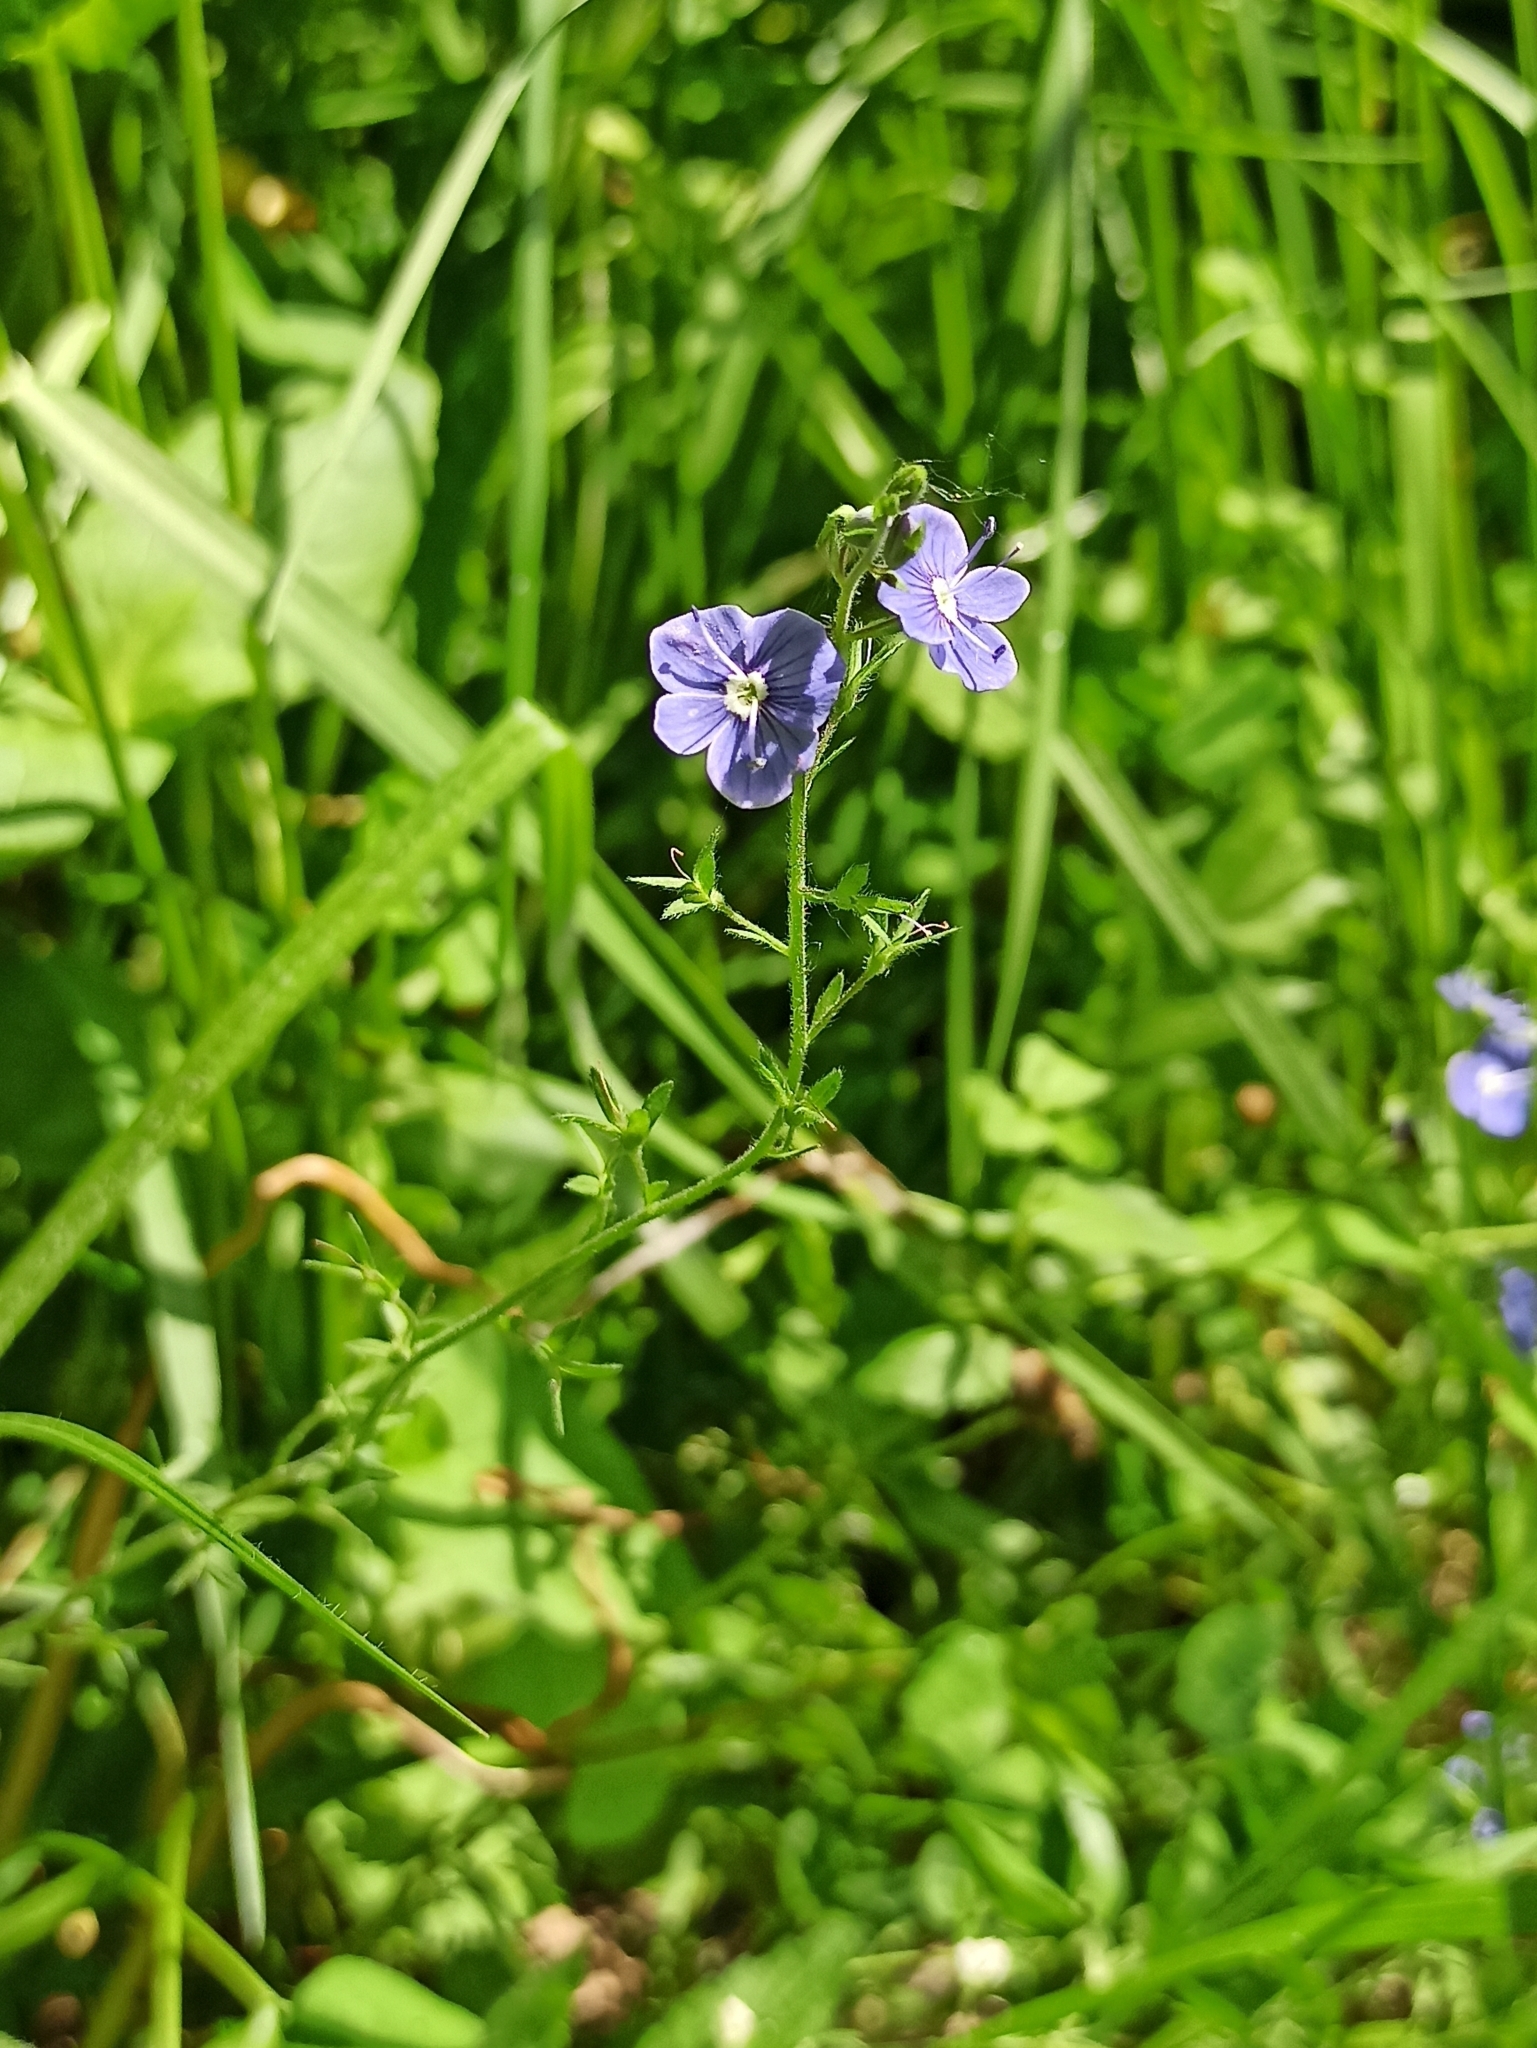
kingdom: Plantae
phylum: Tracheophyta
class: Magnoliopsida
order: Lamiales
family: Plantaginaceae
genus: Veronica
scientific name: Veronica chamaedrys
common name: Germander speedwell
